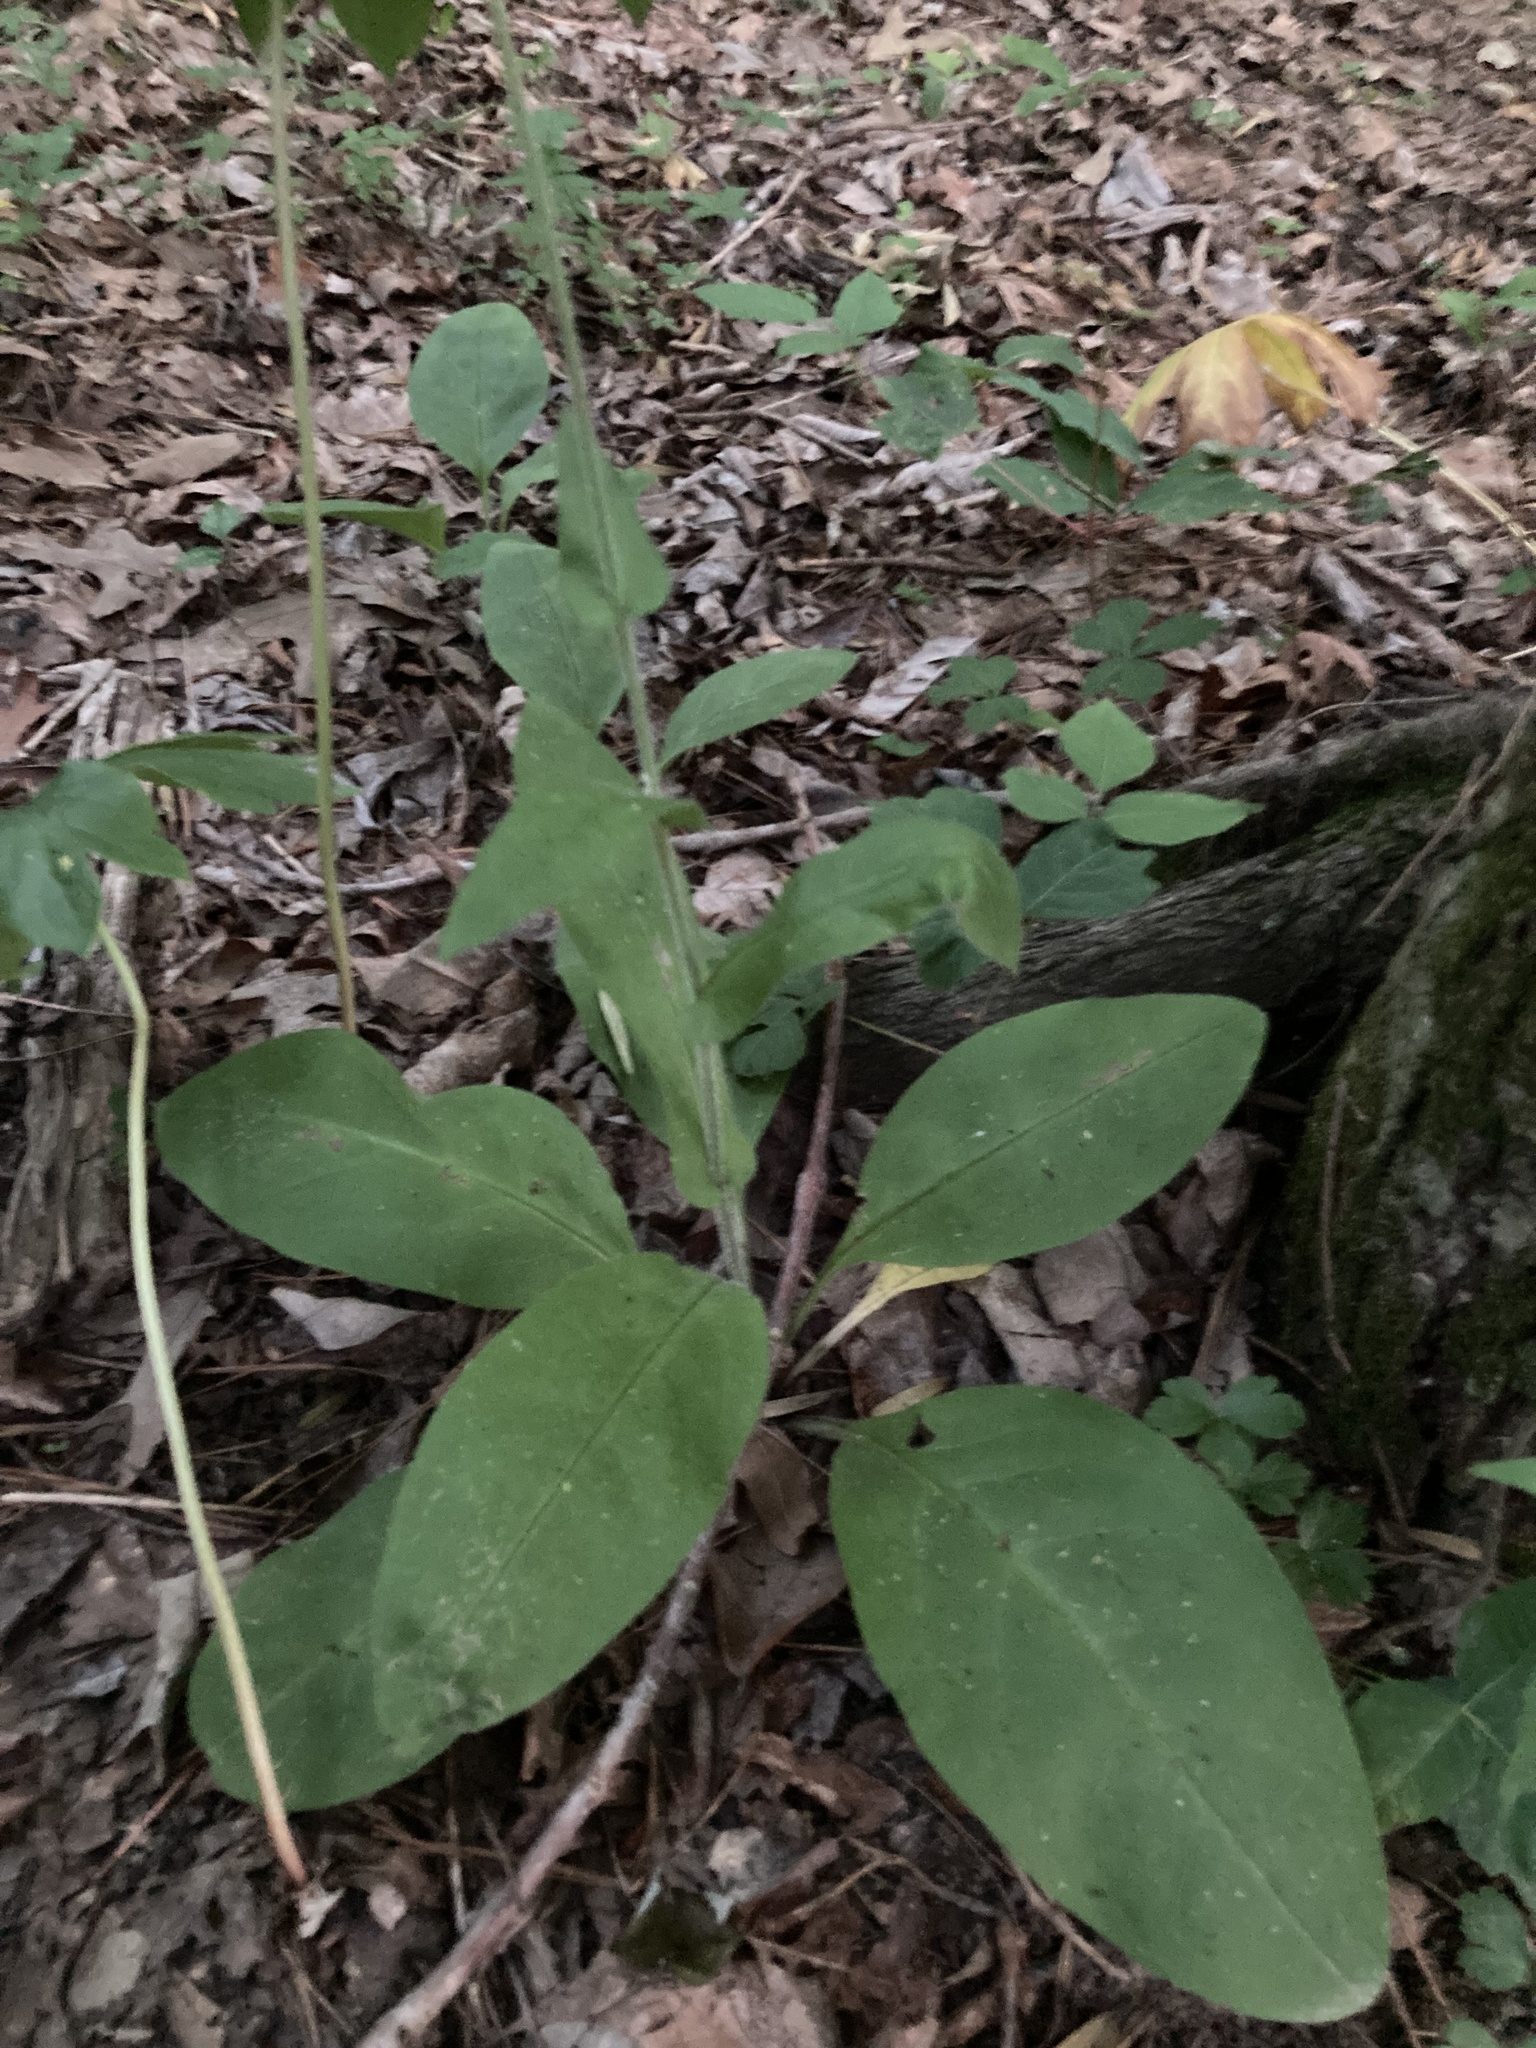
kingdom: Plantae
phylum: Tracheophyta
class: Magnoliopsida
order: Boraginales
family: Boraginaceae
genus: Andersonglossum
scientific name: Andersonglossum virginianum
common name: Wild comfrey
